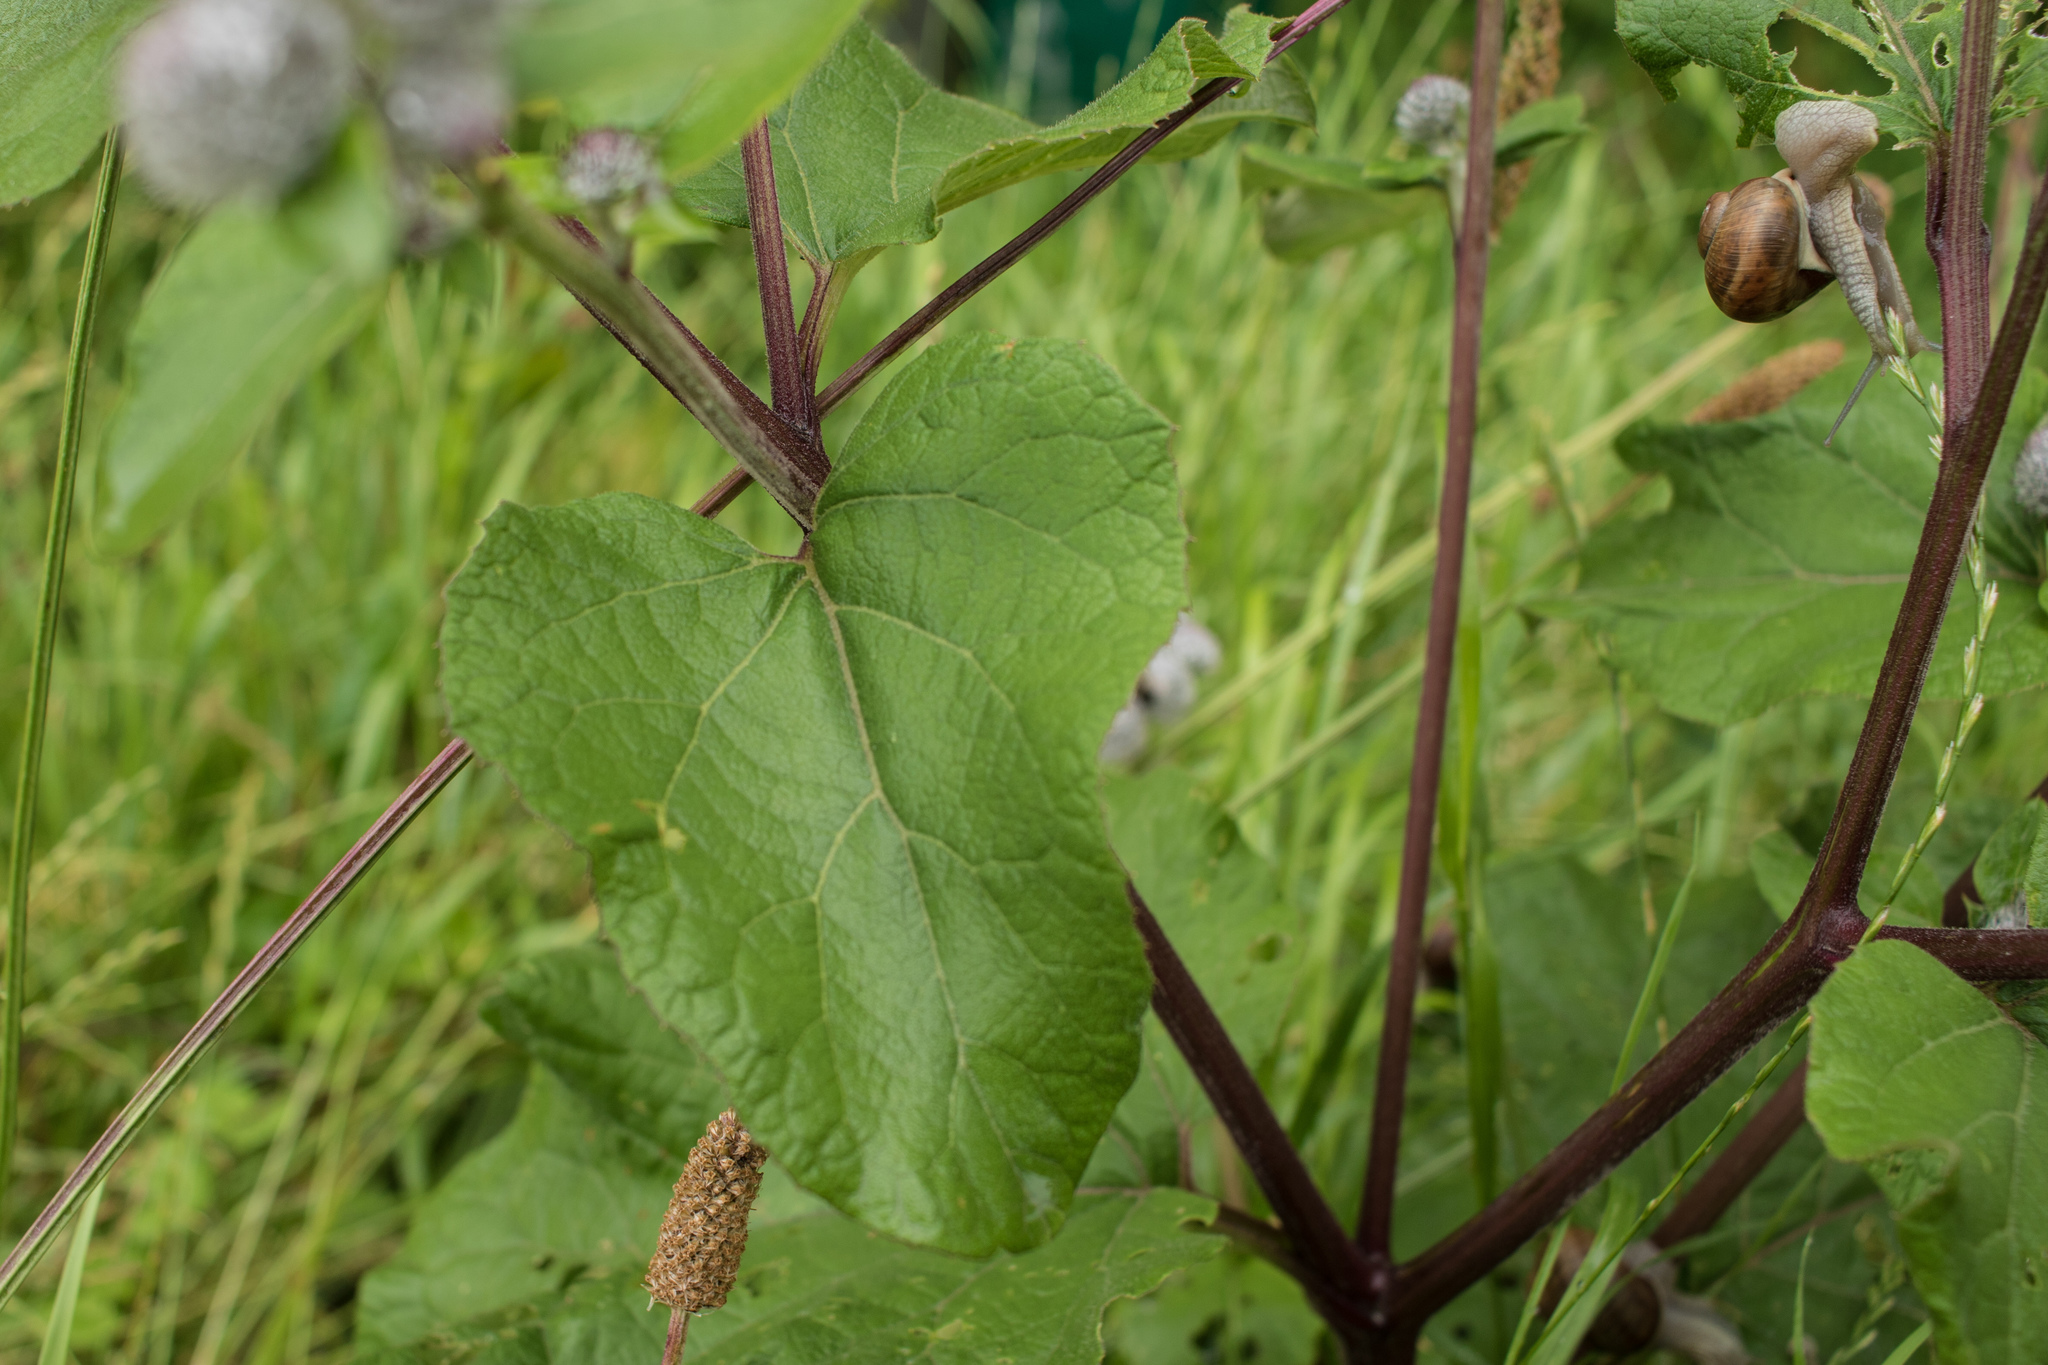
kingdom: Plantae
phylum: Tracheophyta
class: Magnoliopsida
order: Asterales
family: Asteraceae
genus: Arctium
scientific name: Arctium tomentosum
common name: Woolly burdock
